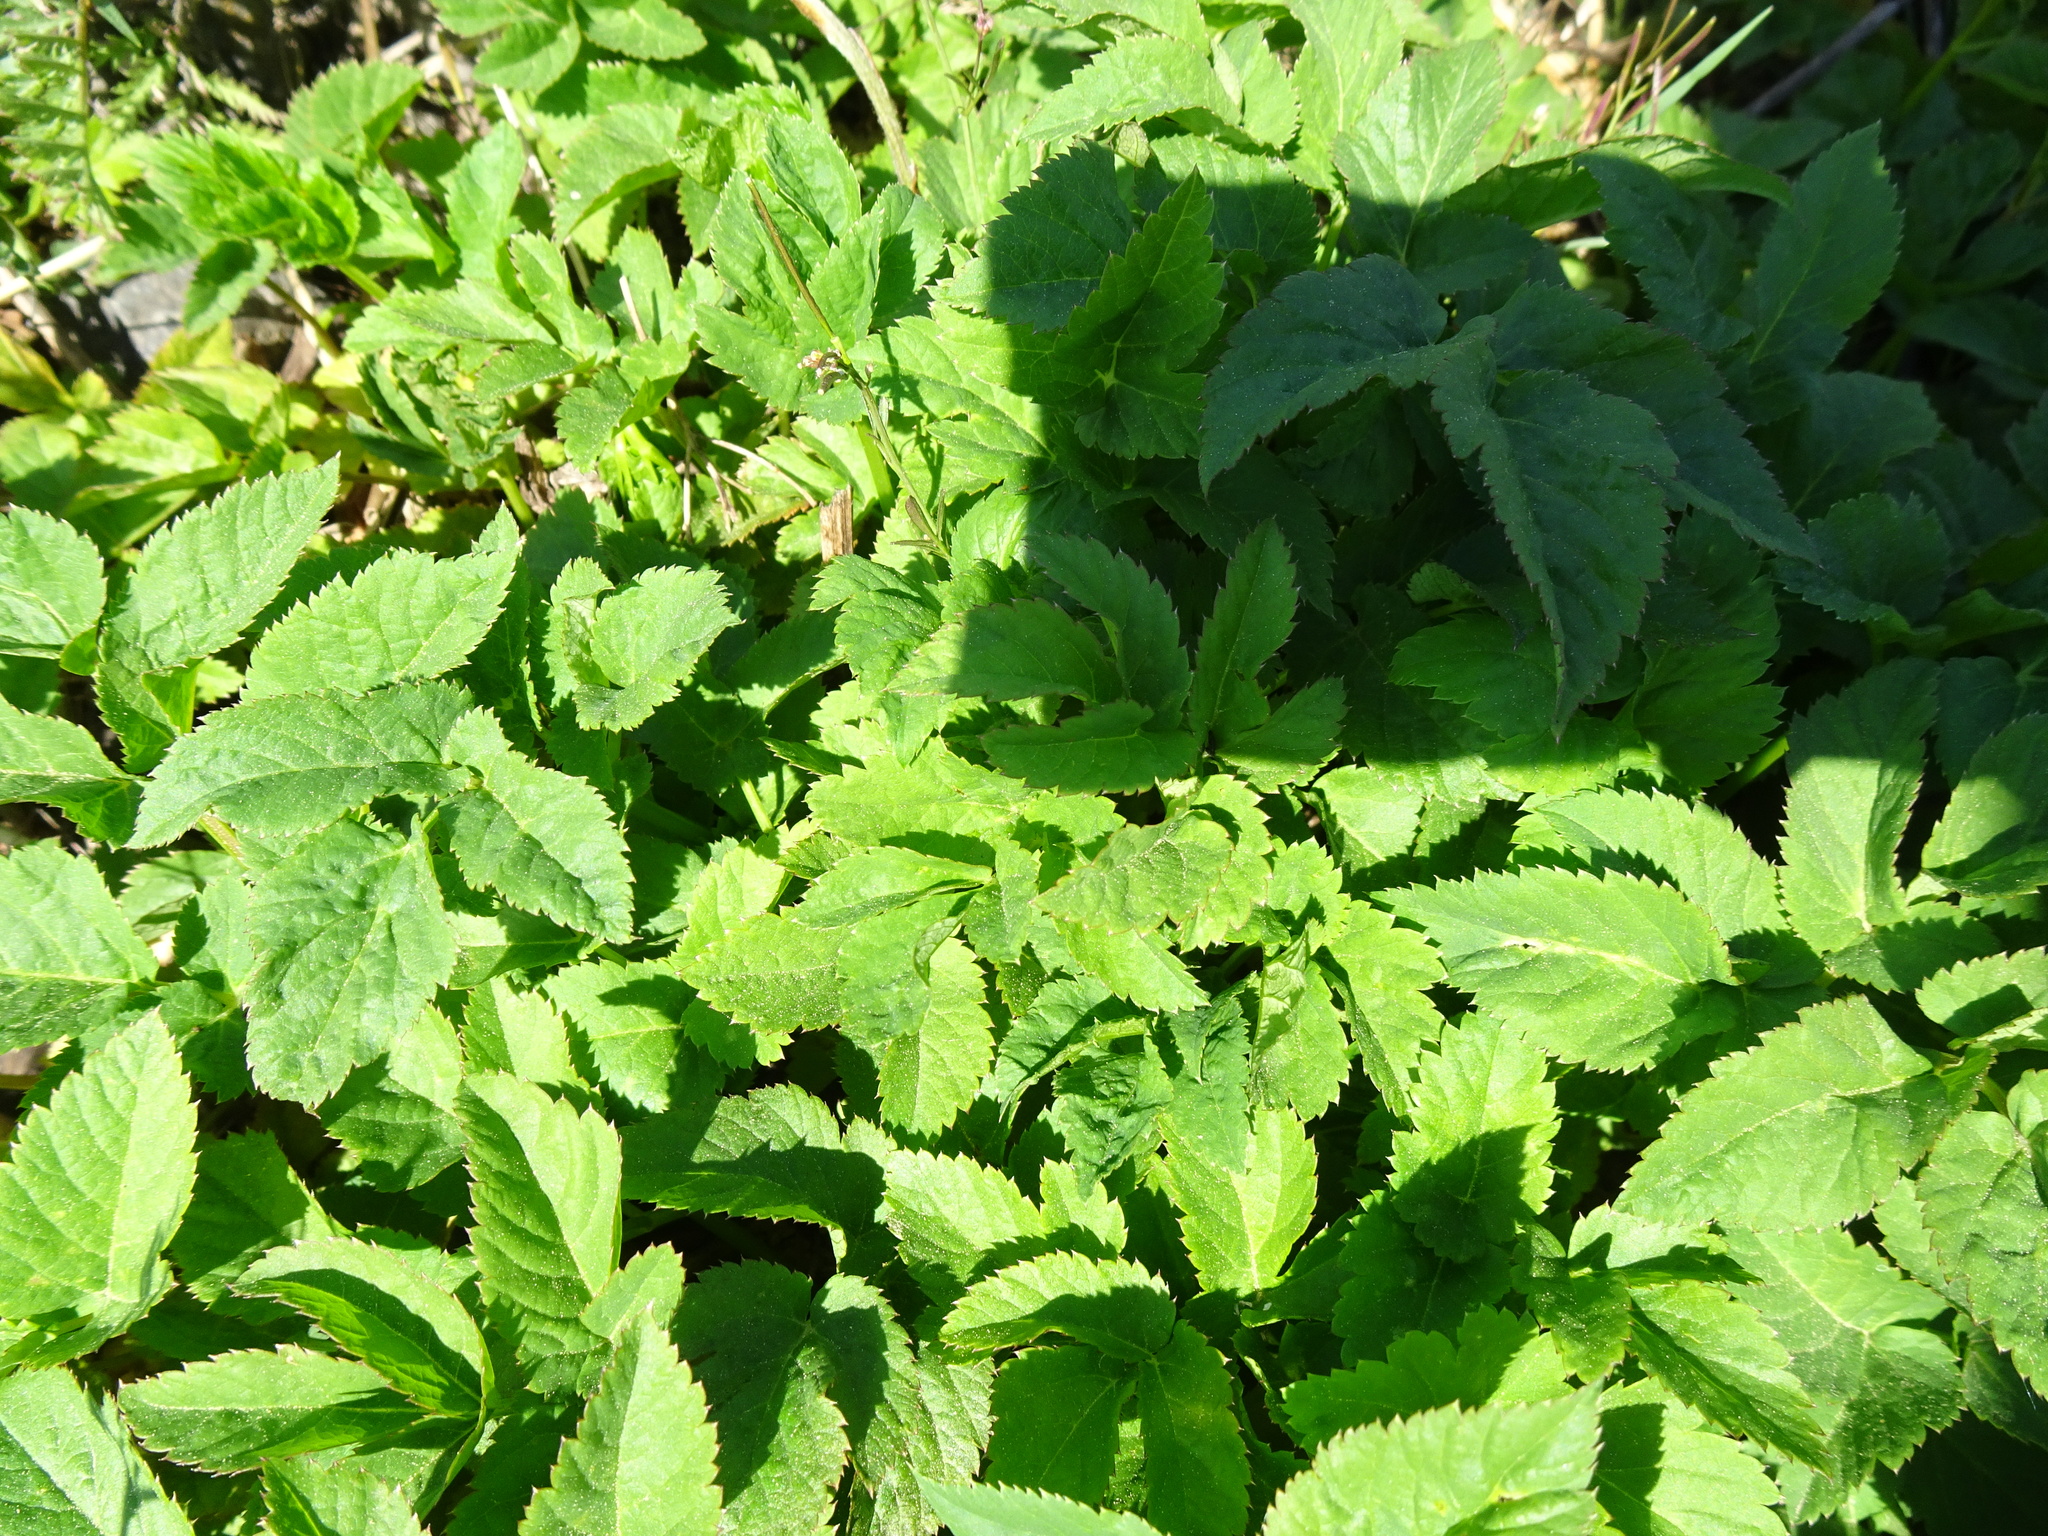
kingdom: Plantae
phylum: Tracheophyta
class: Magnoliopsida
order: Apiales
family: Apiaceae
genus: Aegopodium
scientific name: Aegopodium podagraria
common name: Ground-elder
